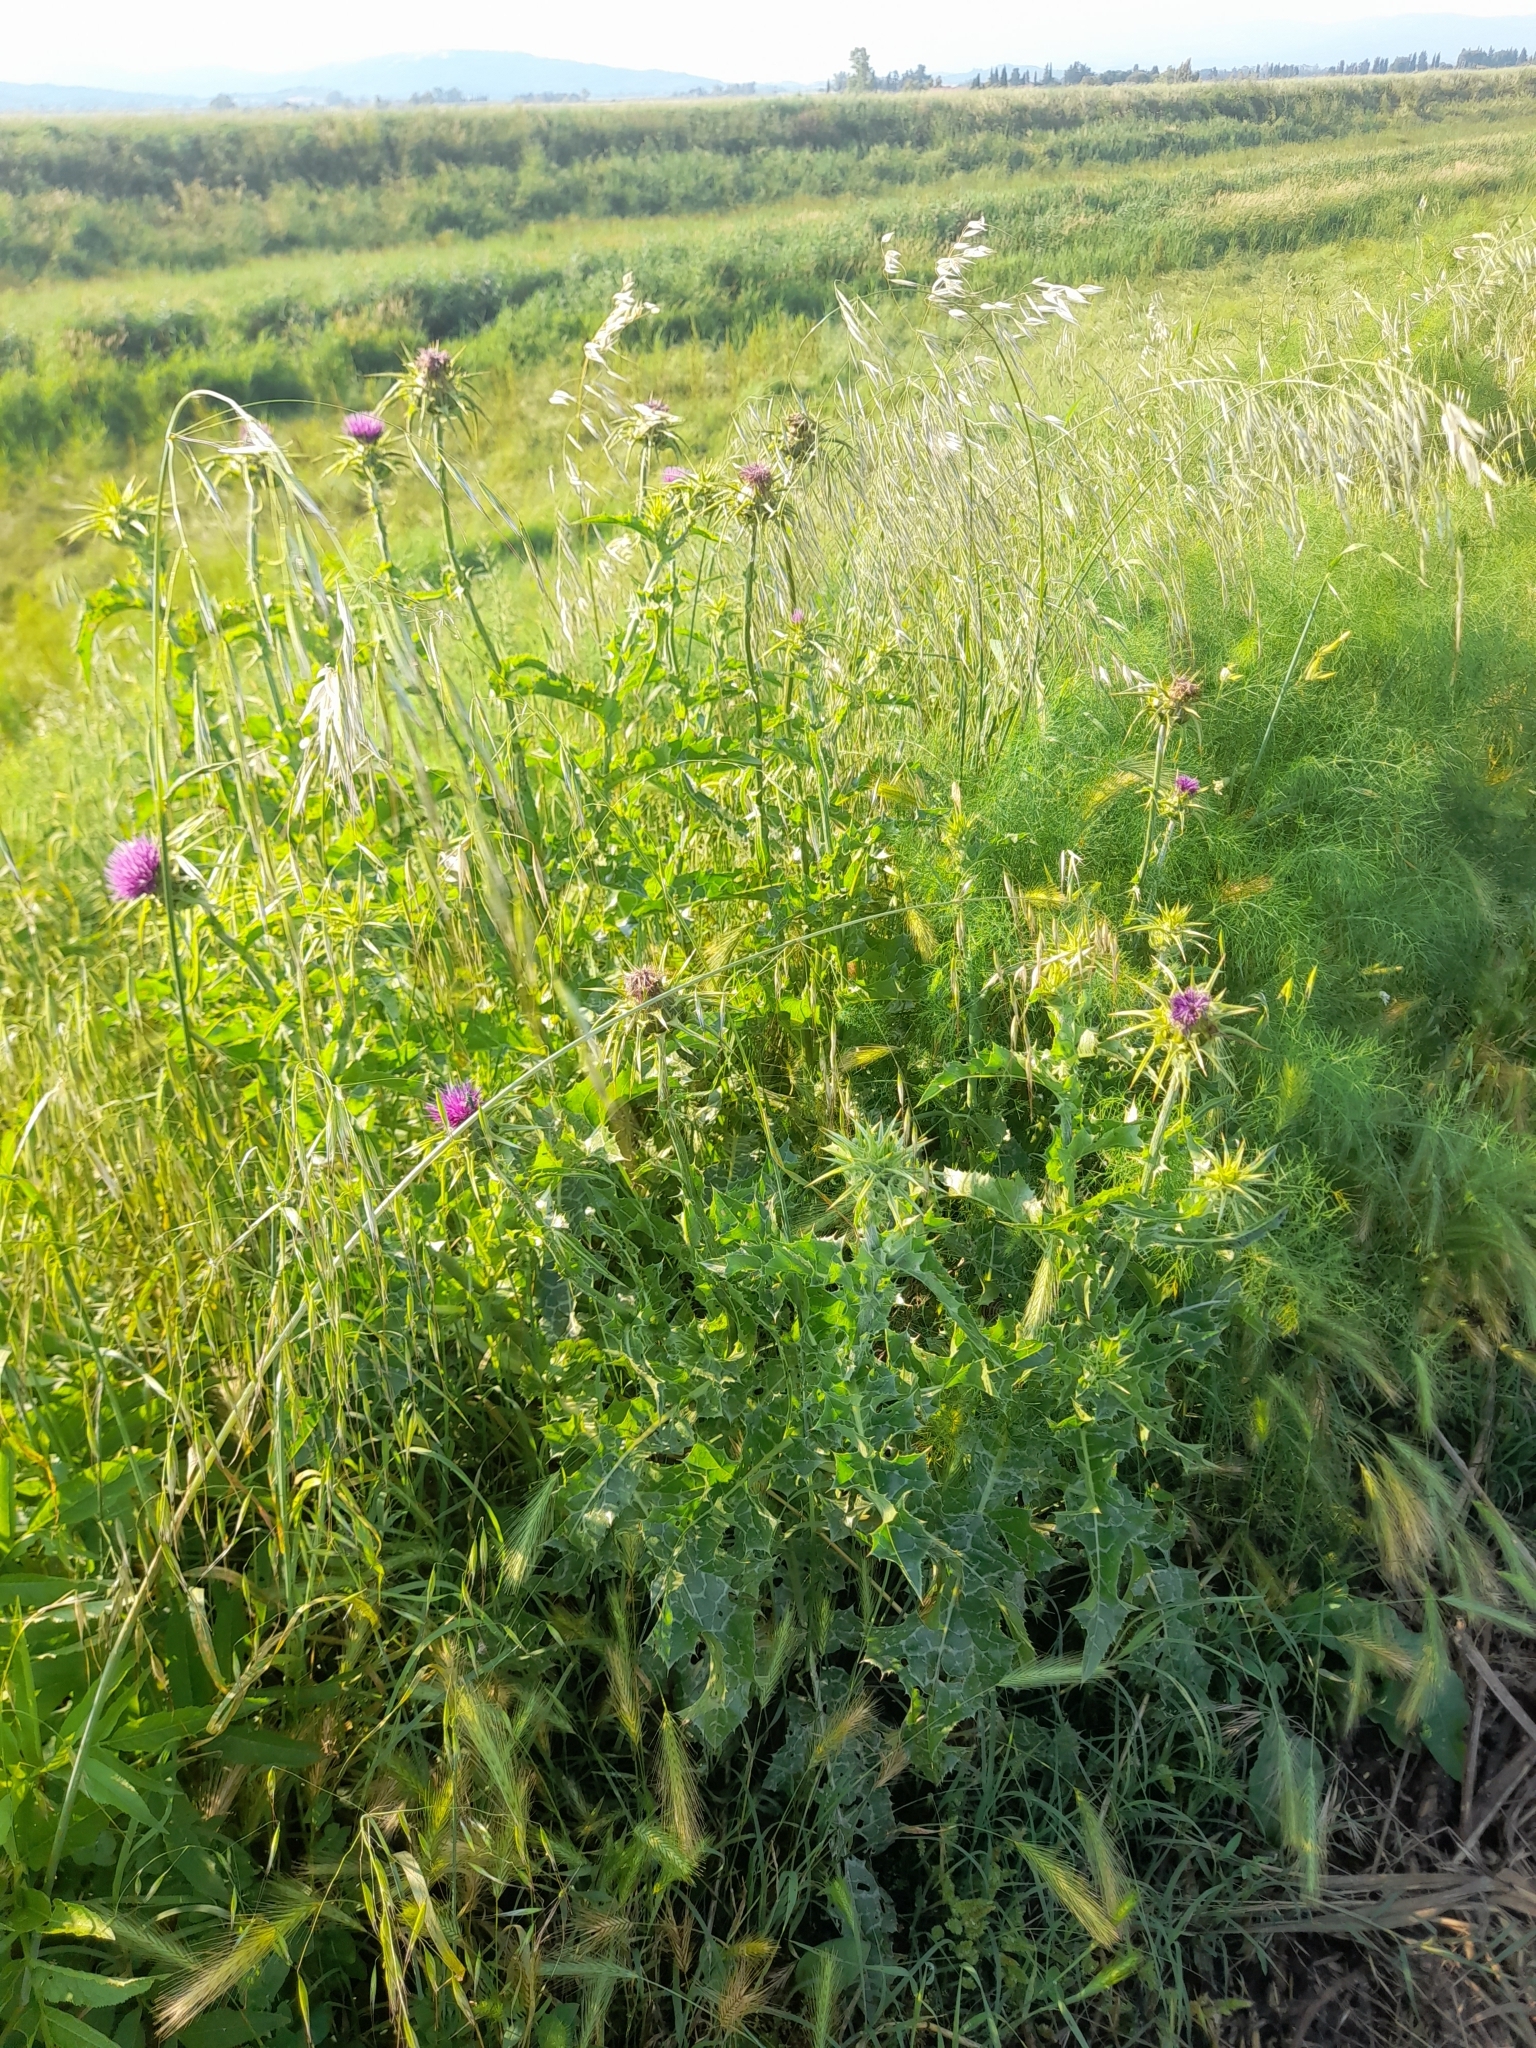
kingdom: Plantae
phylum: Tracheophyta
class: Magnoliopsida
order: Asterales
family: Asteraceae
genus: Silybum
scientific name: Silybum marianum
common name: Milk thistle
